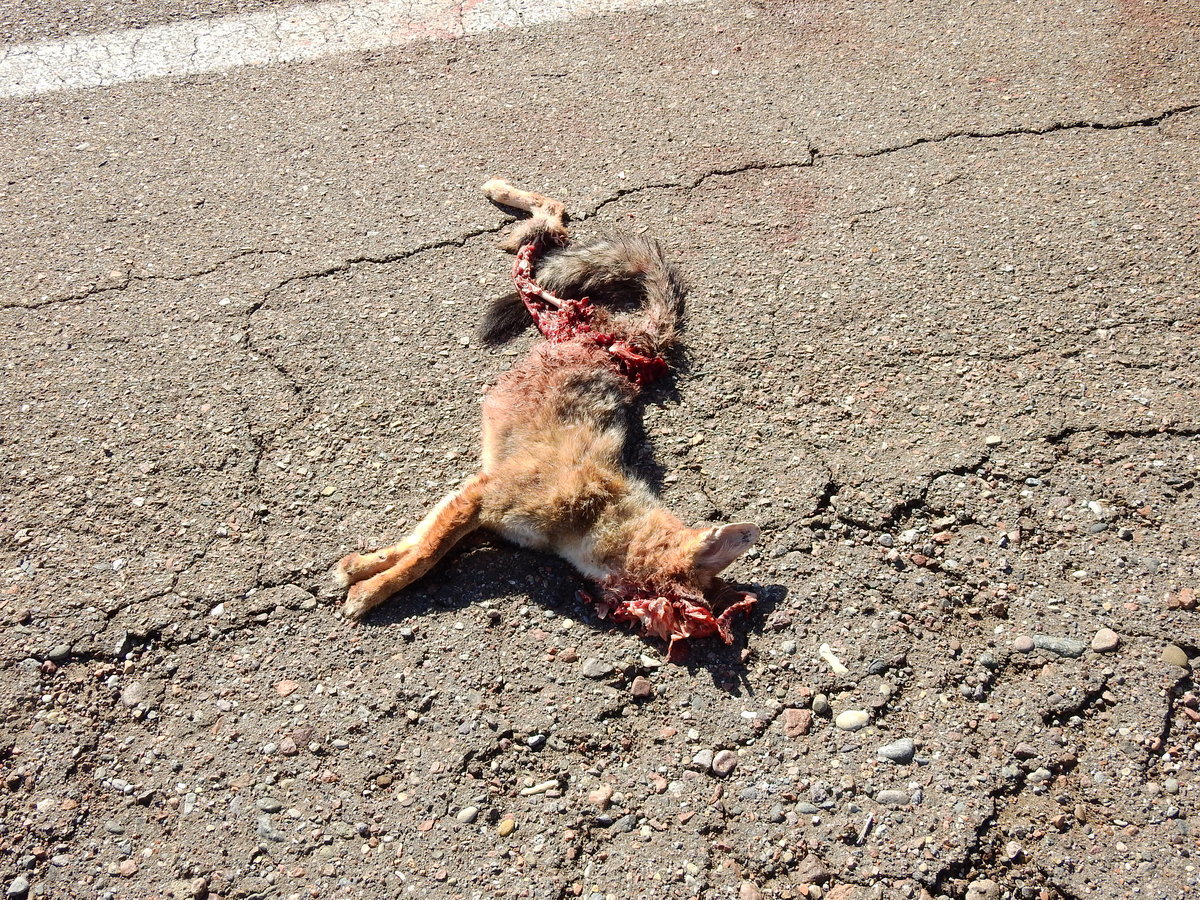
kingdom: Animalia
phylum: Chordata
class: Mammalia
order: Carnivora
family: Canidae
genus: Lycalopex
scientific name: Lycalopex gymnocercus
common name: Pampas fox
